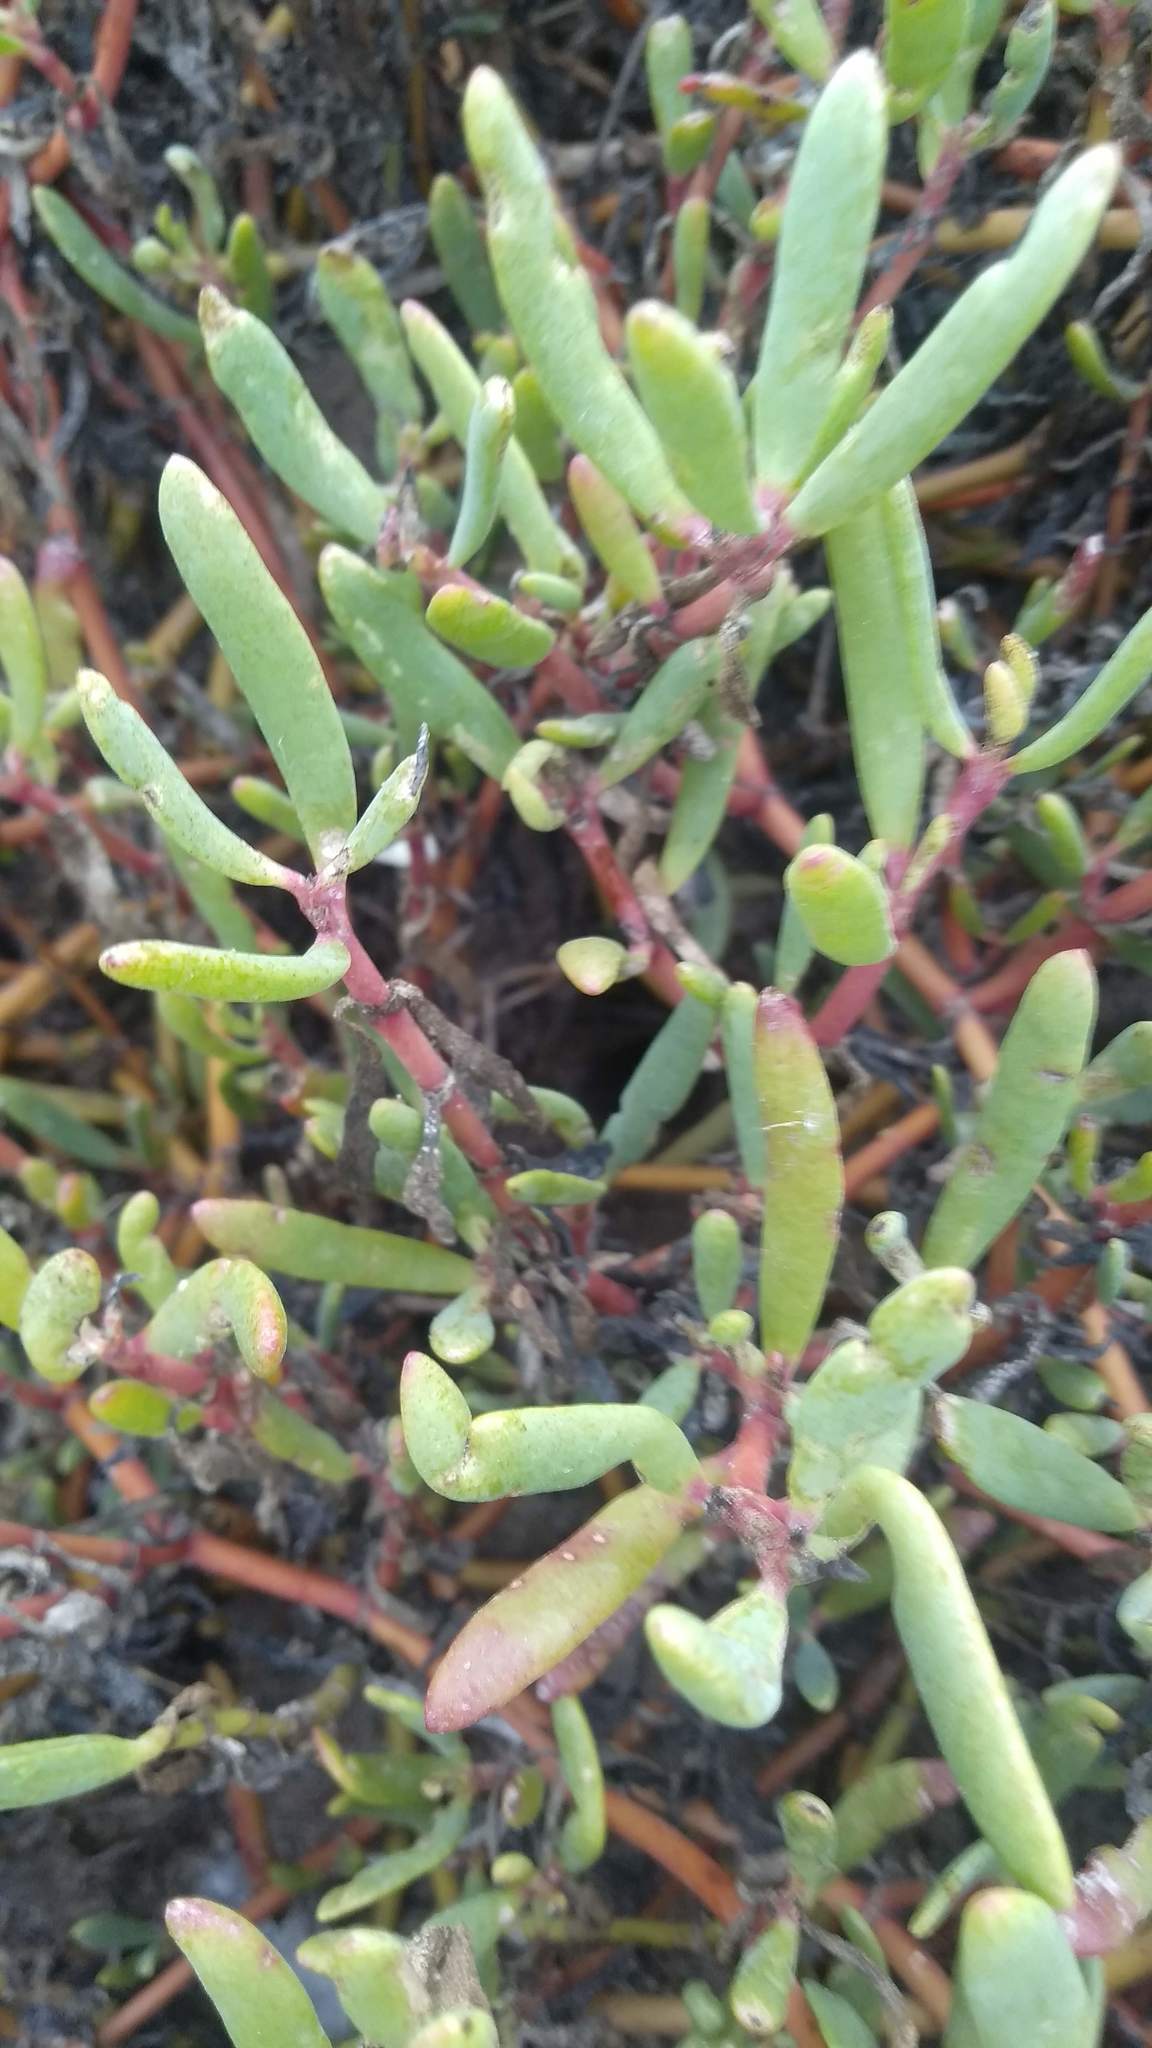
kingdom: Plantae
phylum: Tracheophyta
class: Magnoliopsida
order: Caryophyllales
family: Aizoaceae
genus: Sesuvium
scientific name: Sesuvium portulacastrum
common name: Sea-purslane
